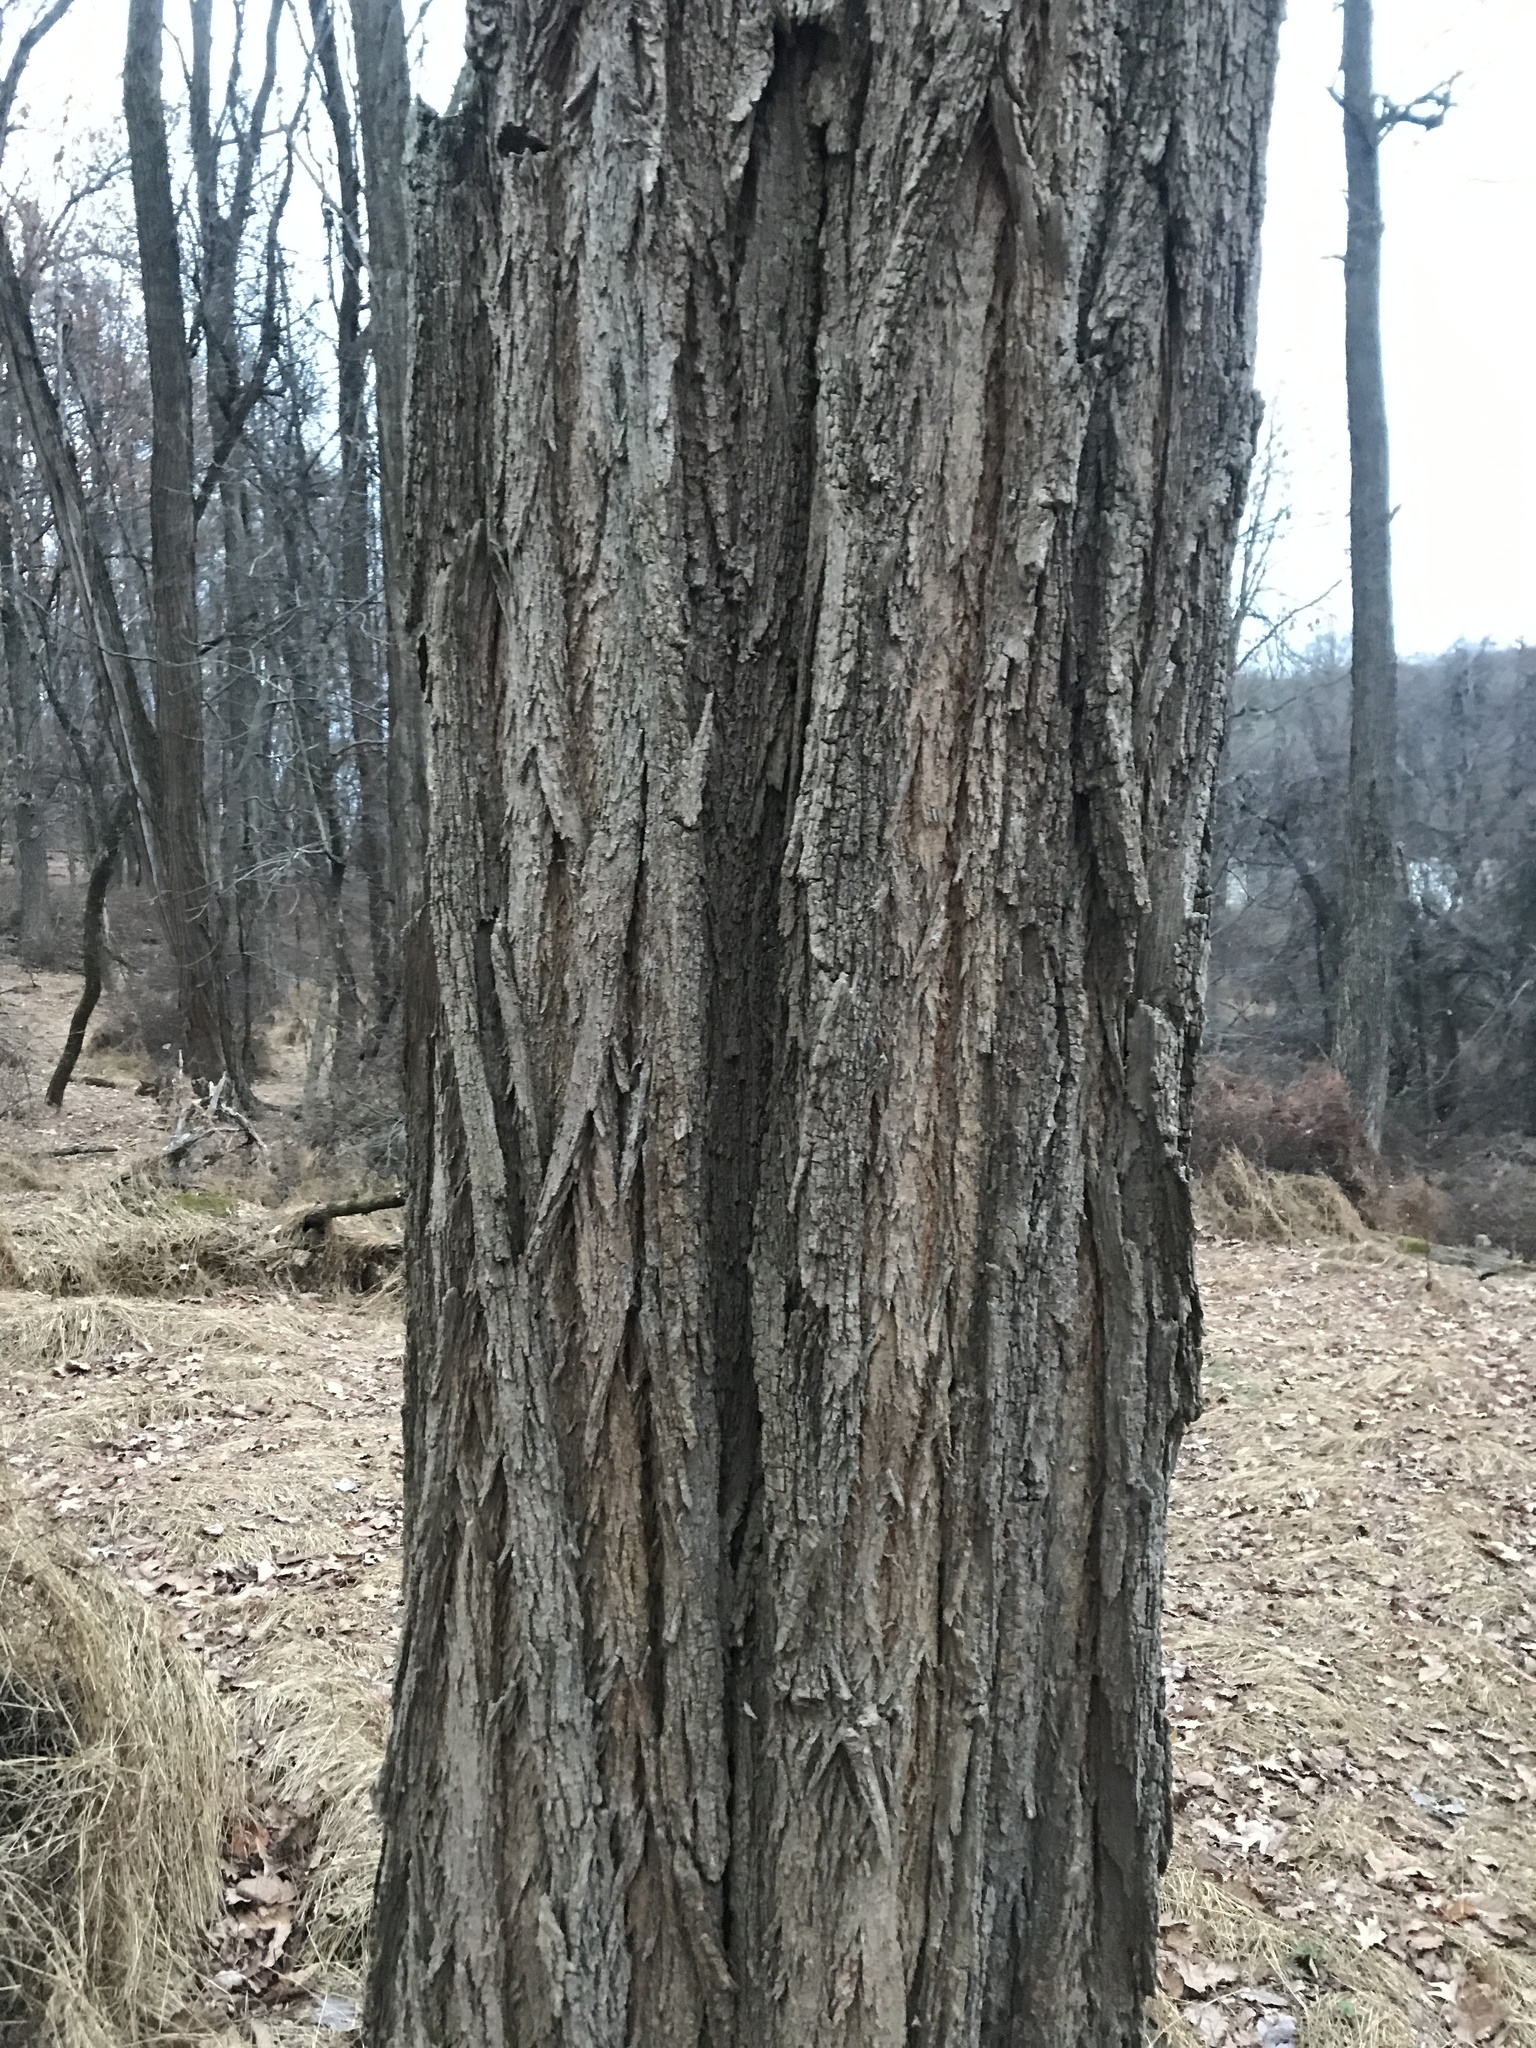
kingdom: Plantae
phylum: Tracheophyta
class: Magnoliopsida
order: Fabales
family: Fabaceae
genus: Robinia
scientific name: Robinia pseudoacacia
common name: Black locust
